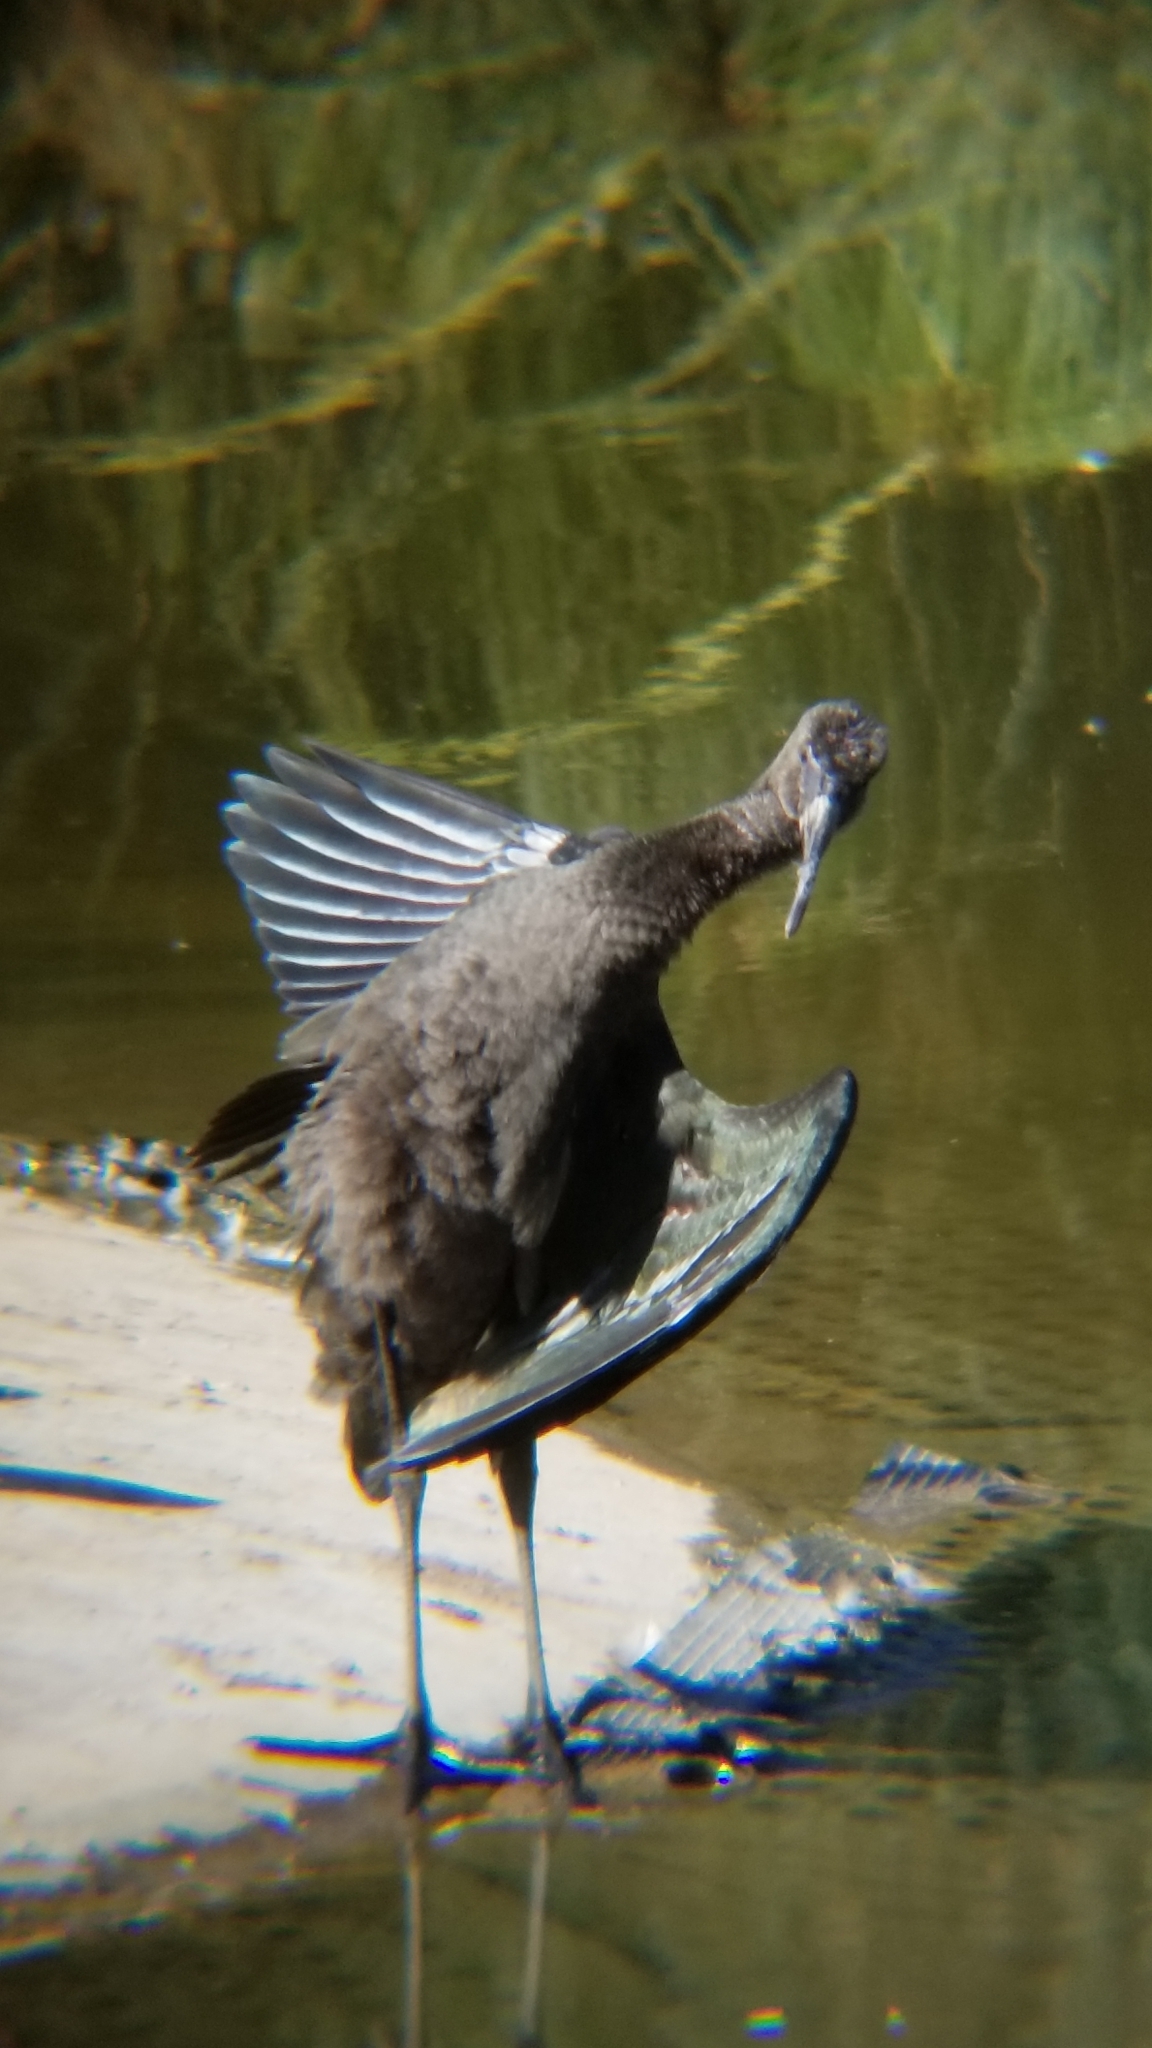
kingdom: Animalia
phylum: Chordata
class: Aves
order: Pelecaniformes
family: Threskiornithidae
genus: Plegadis
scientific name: Plegadis chihi
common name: White-faced ibis
